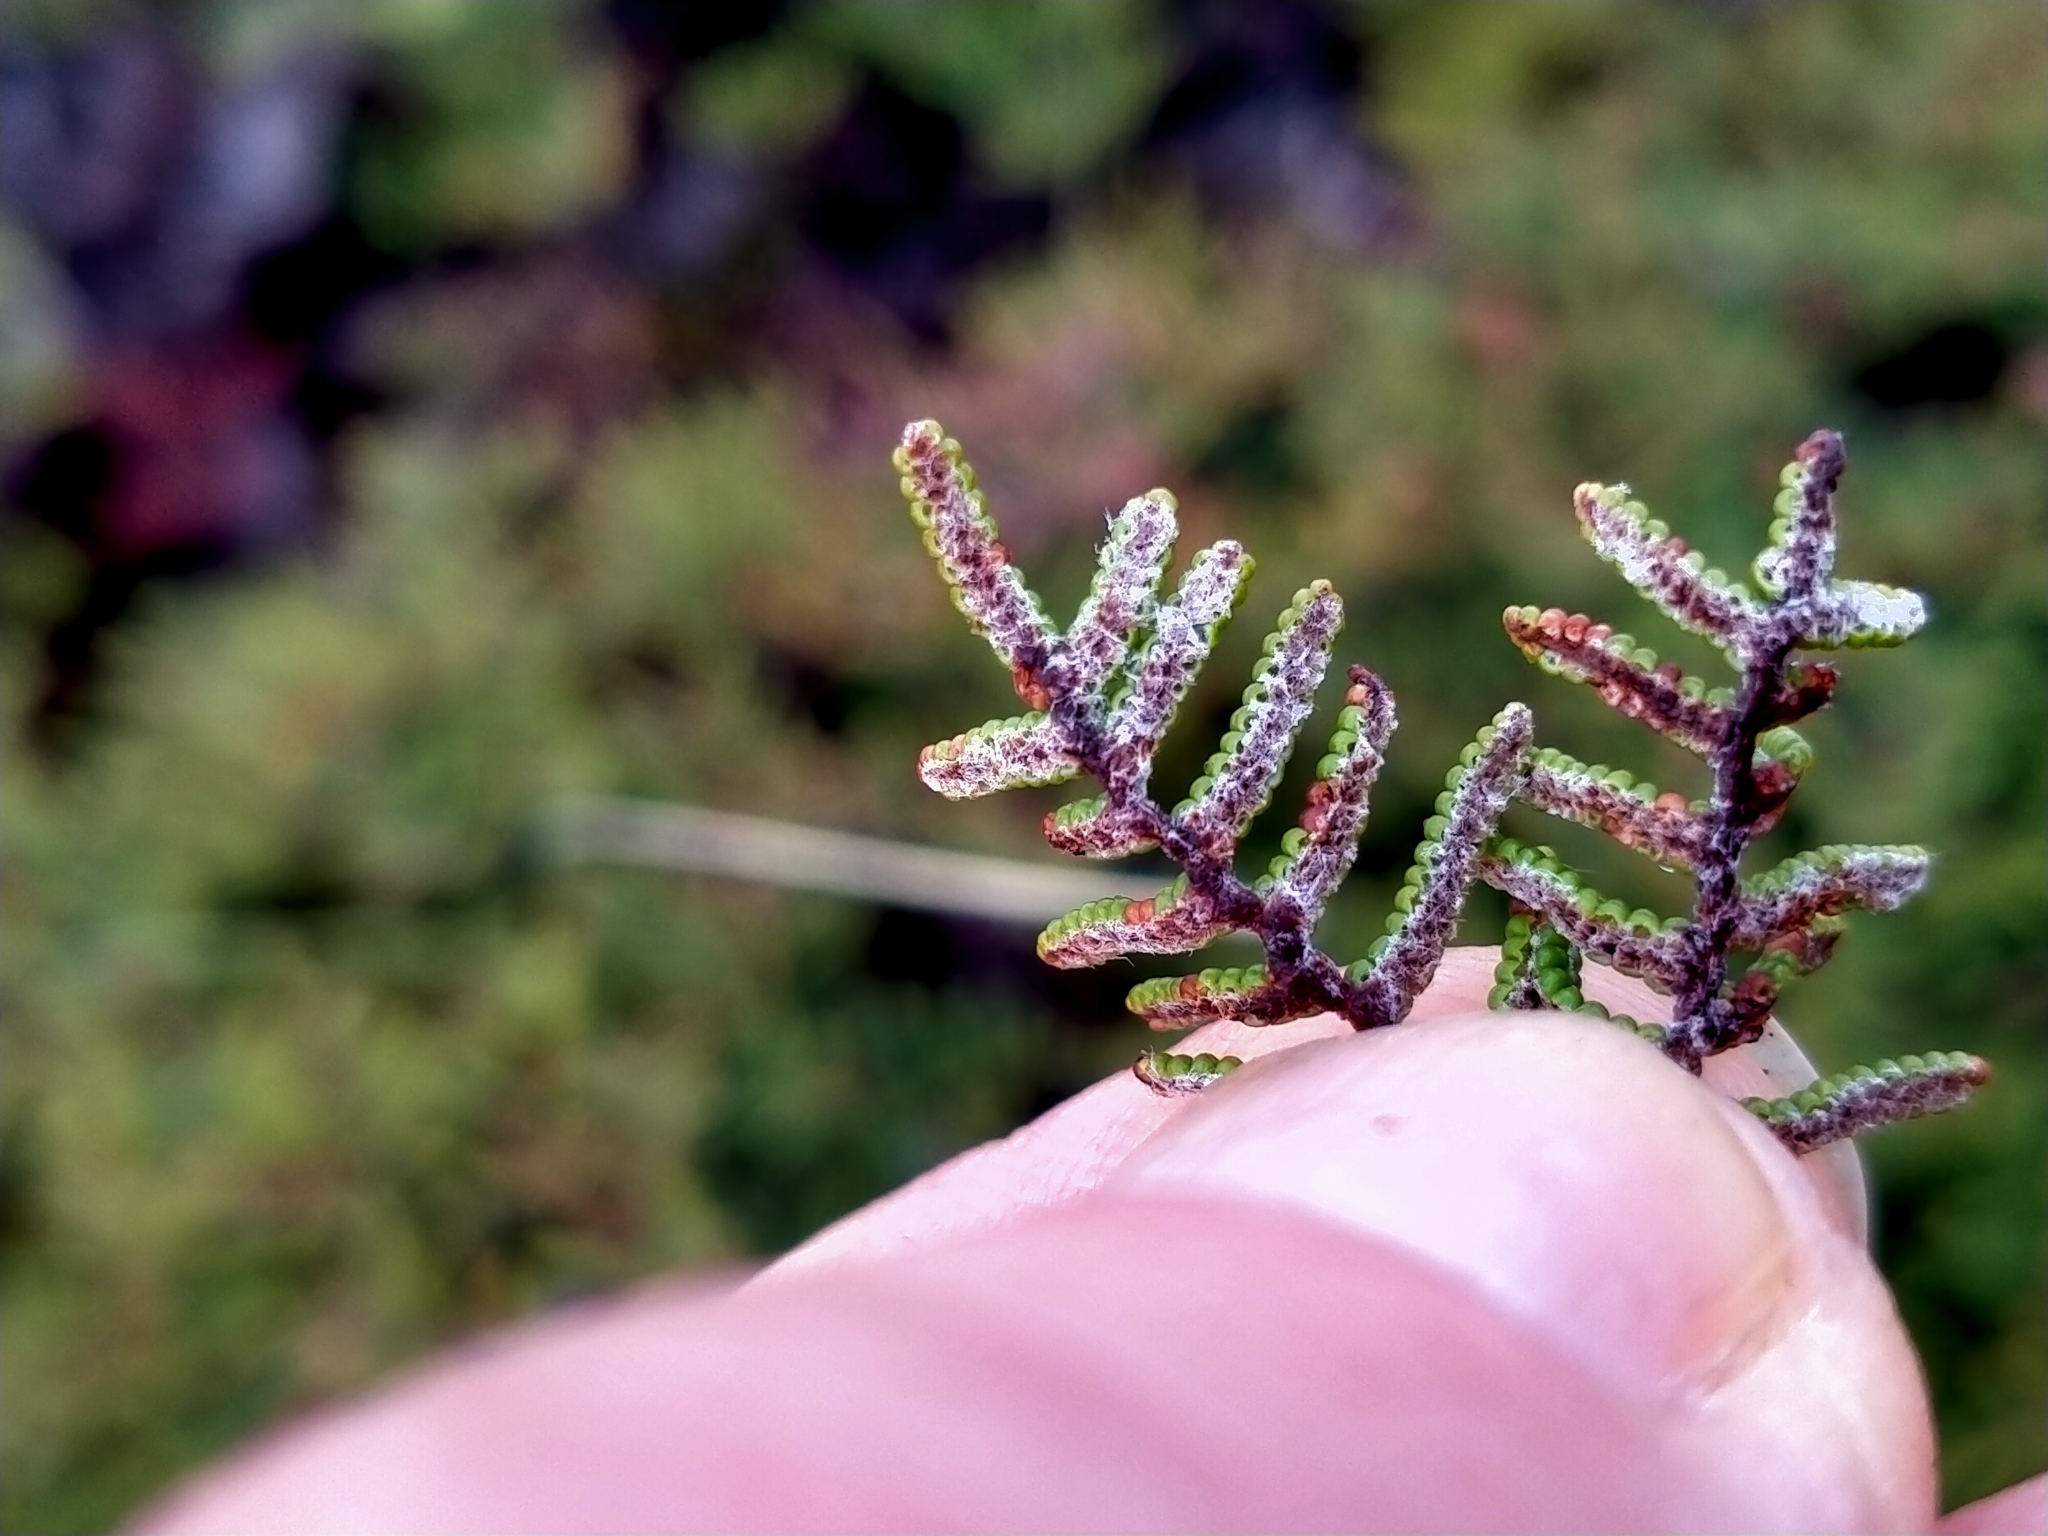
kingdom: Plantae
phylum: Tracheophyta
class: Polypodiopsida
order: Gleicheniales
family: Gleicheniaceae
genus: Gleichenia
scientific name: Gleichenia alpina
